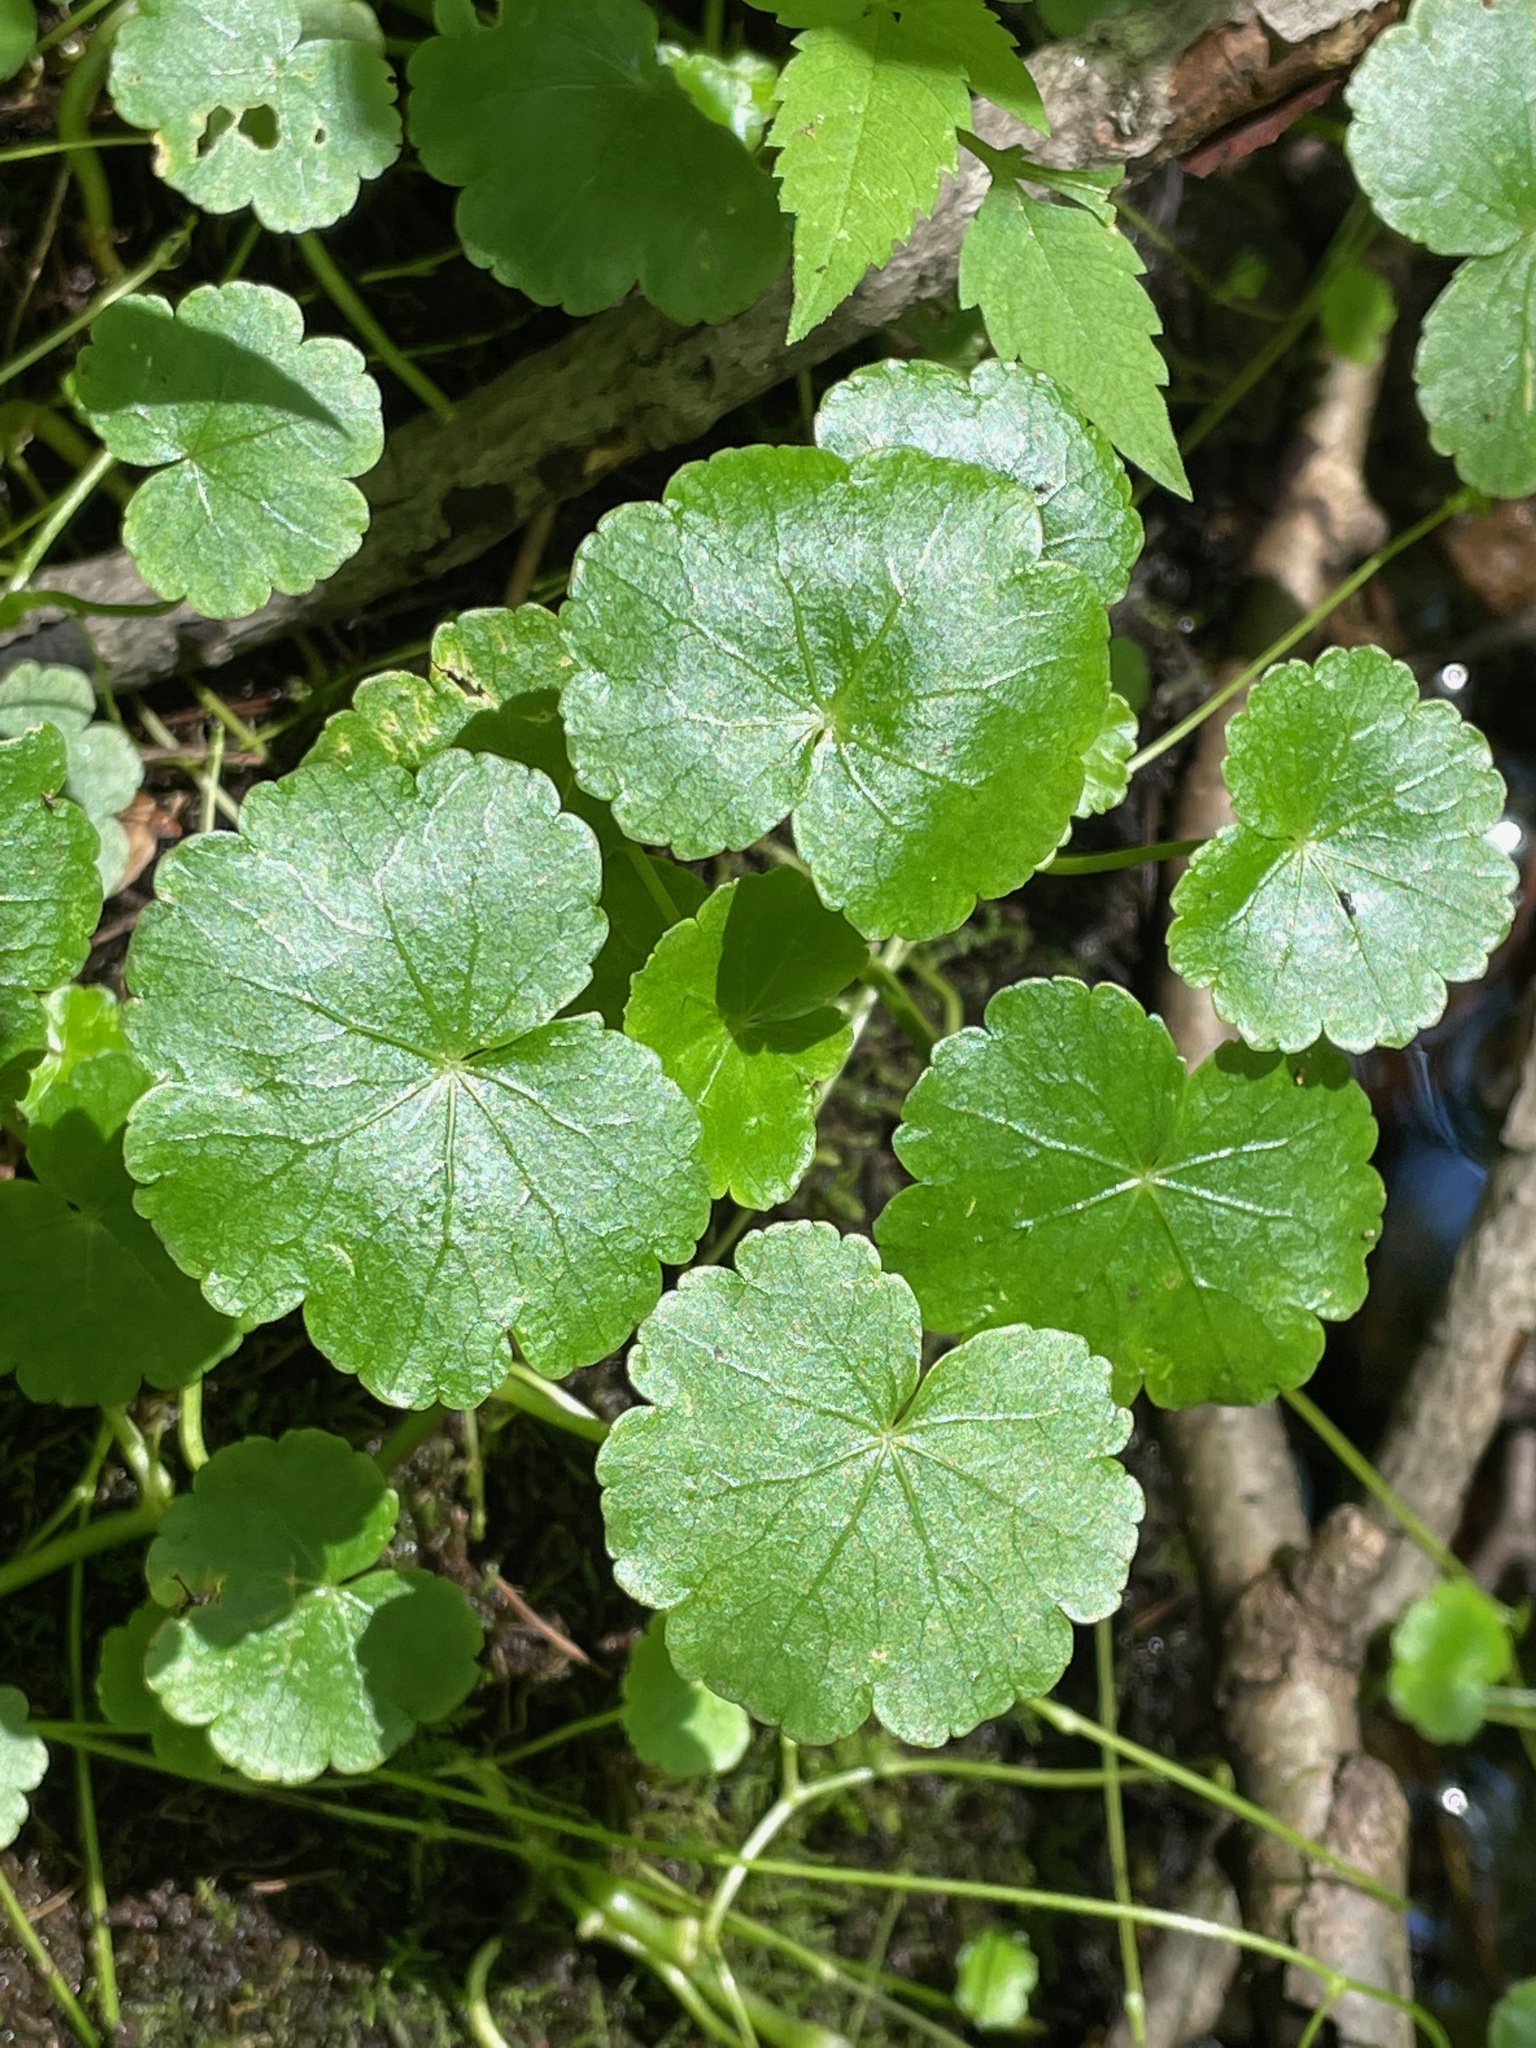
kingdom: Plantae
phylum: Tracheophyta
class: Magnoliopsida
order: Apiales
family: Araliaceae
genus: Hydrocotyle
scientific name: Hydrocotyle americana
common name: American water-pennywort
